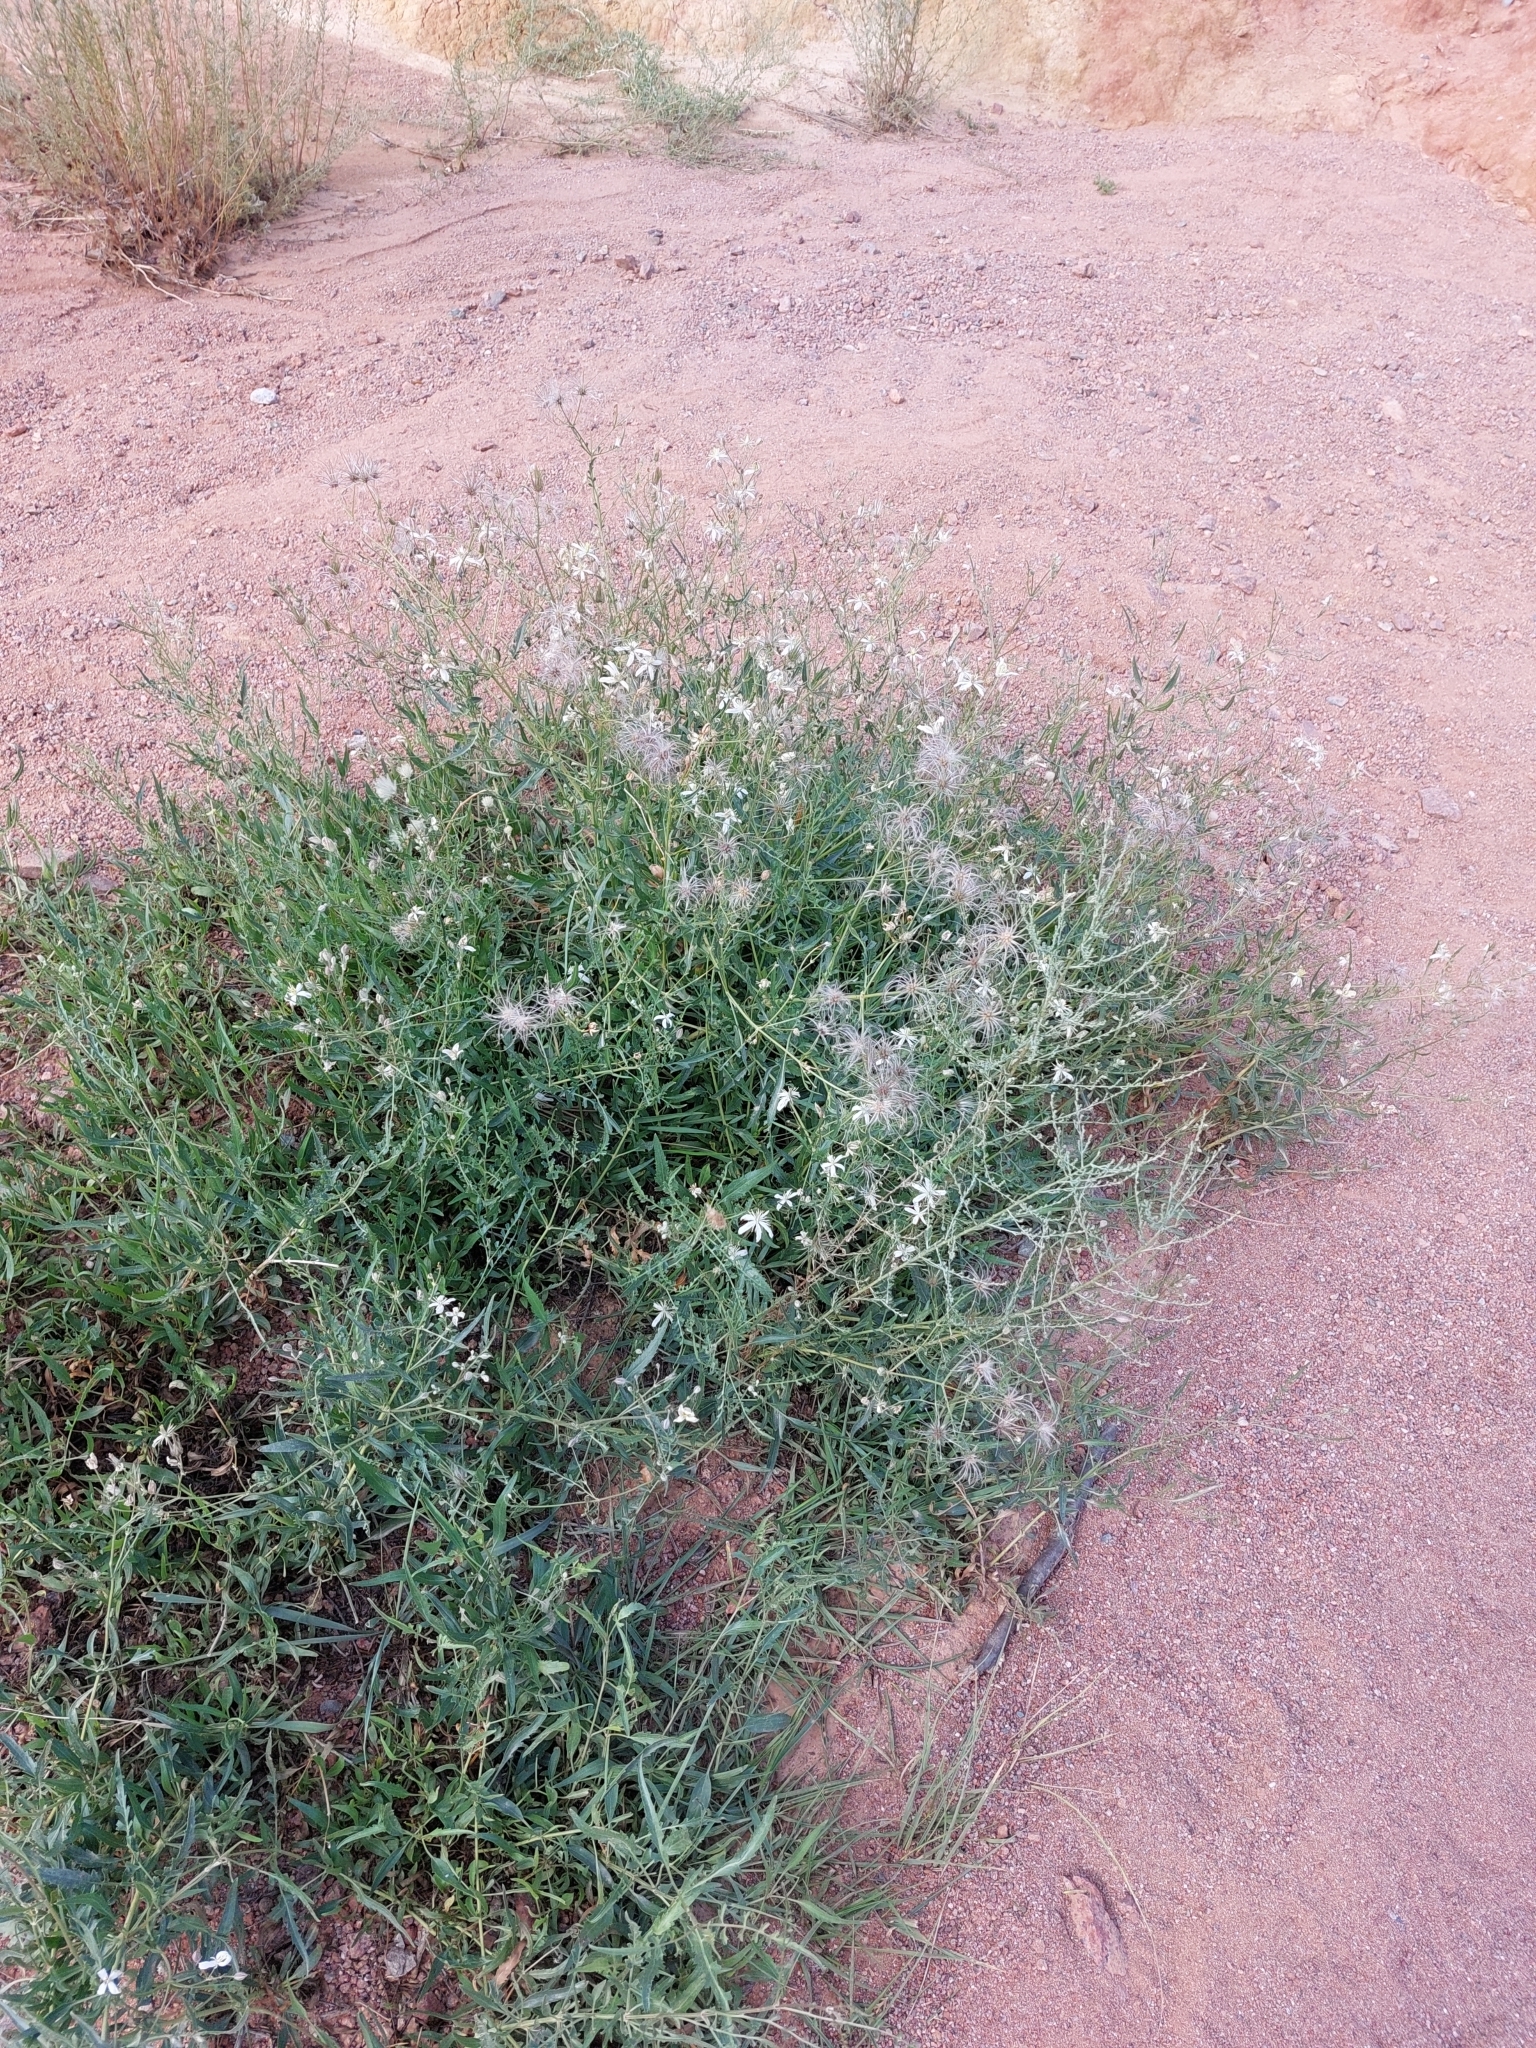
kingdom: Plantae
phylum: Tracheophyta
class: Magnoliopsida
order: Ranunculales
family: Ranunculaceae
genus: Clematis
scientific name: Clematis songorica
